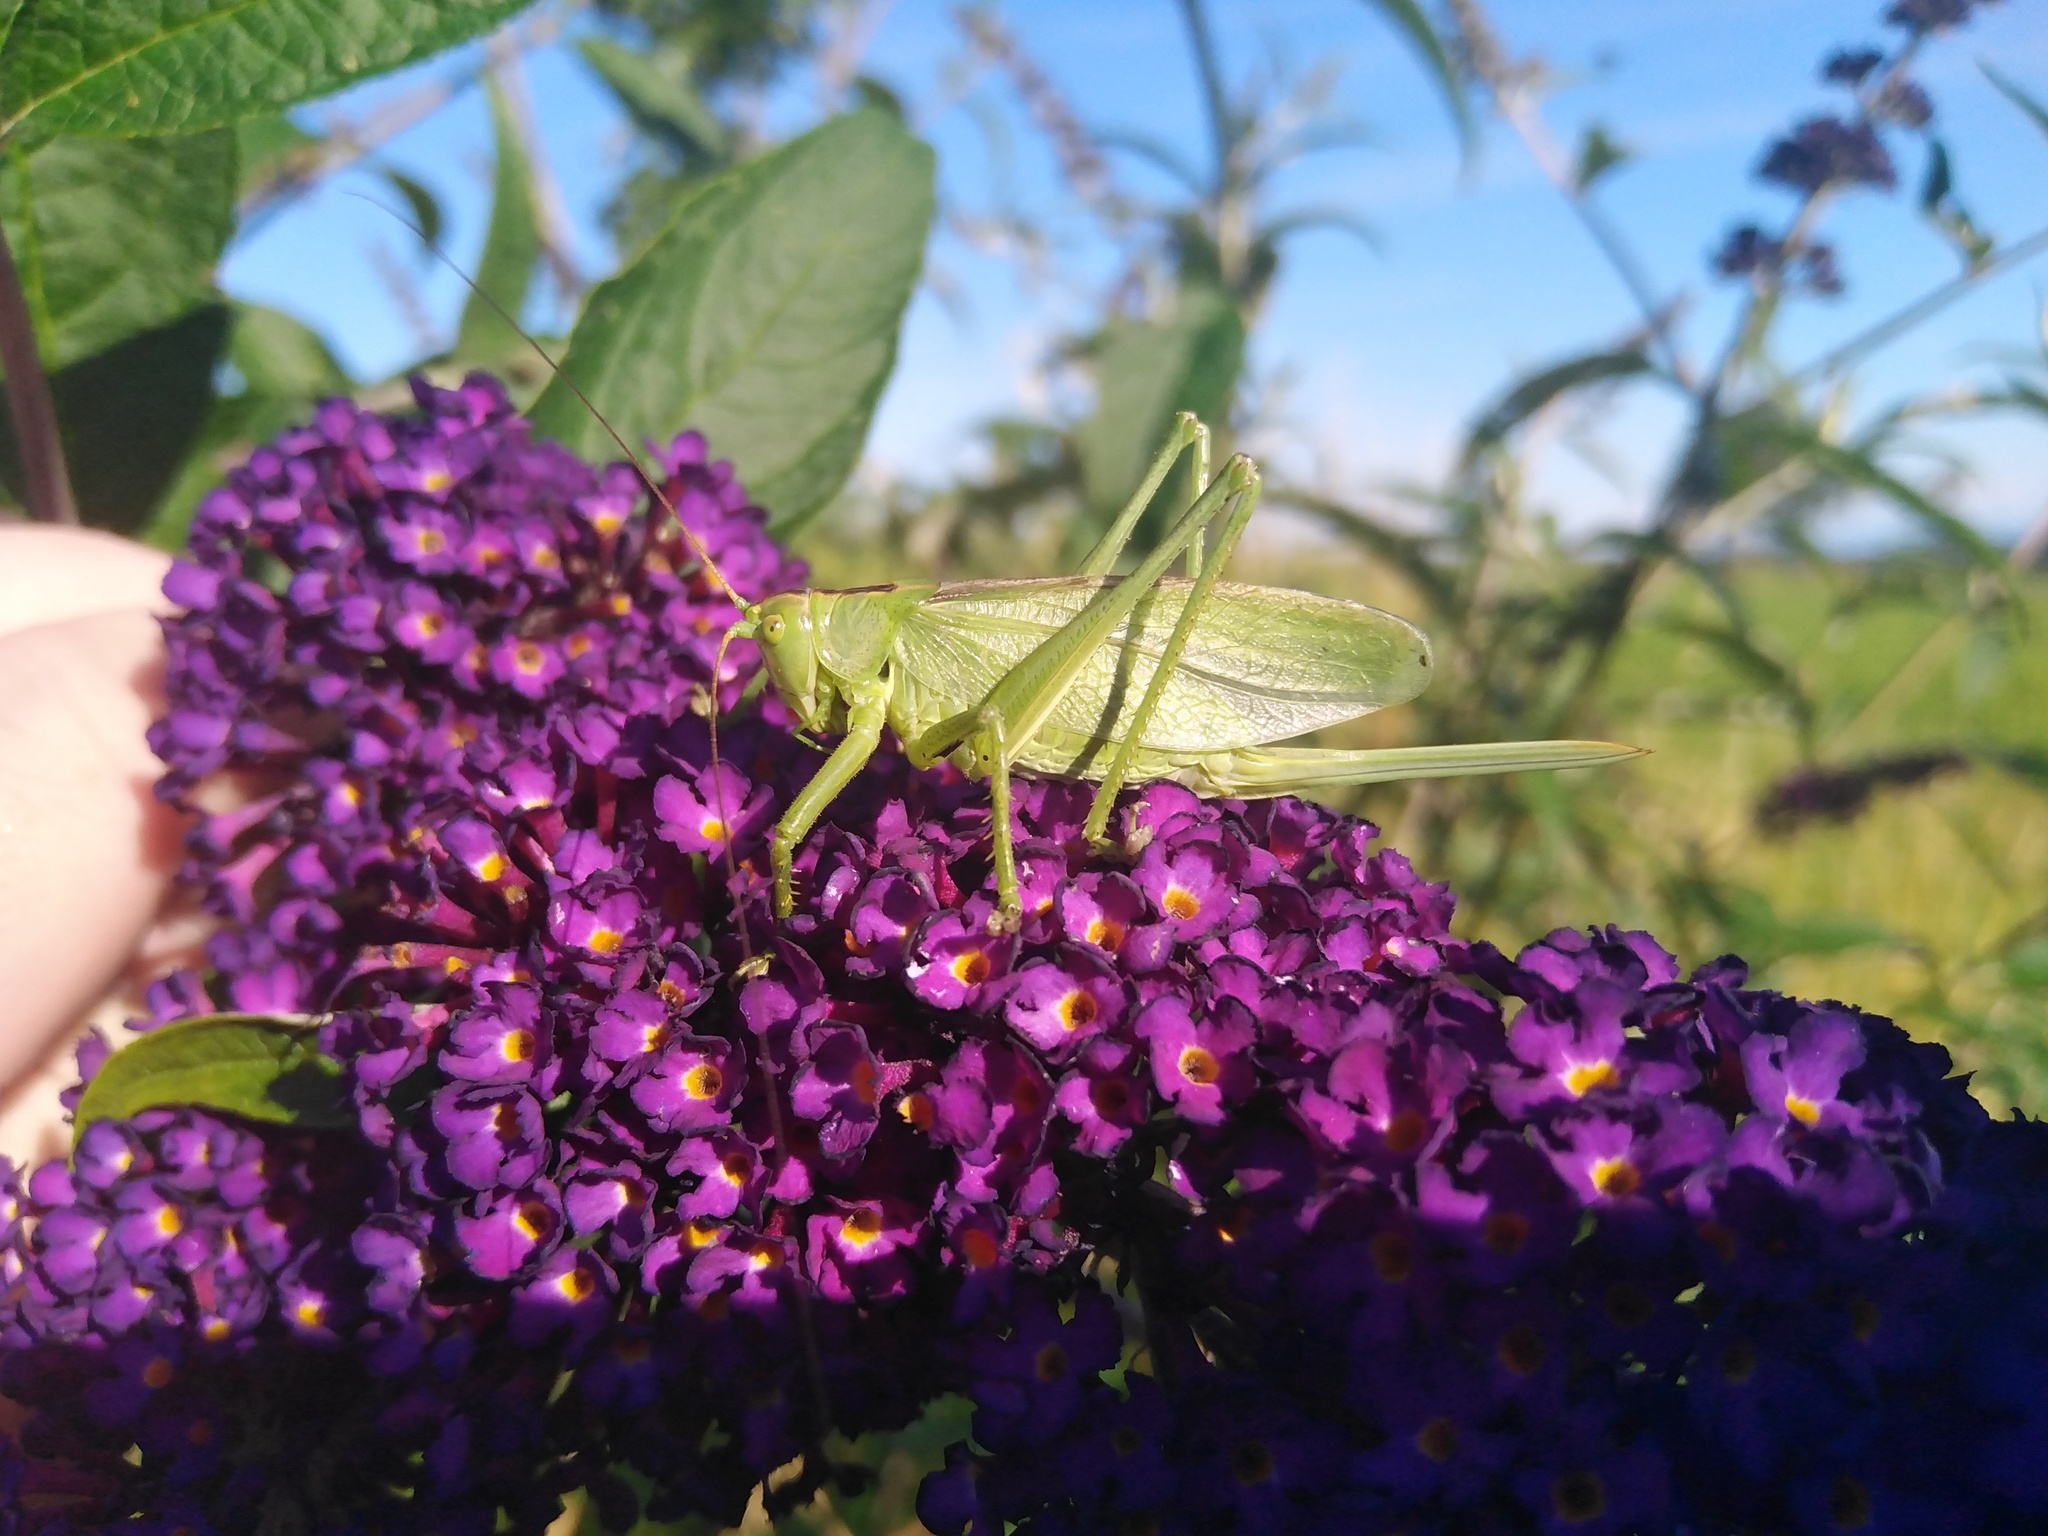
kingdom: Animalia
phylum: Arthropoda
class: Insecta
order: Orthoptera
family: Tettigoniidae
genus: Tettigonia
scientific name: Tettigonia cantans
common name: Upland green bush-cricket
